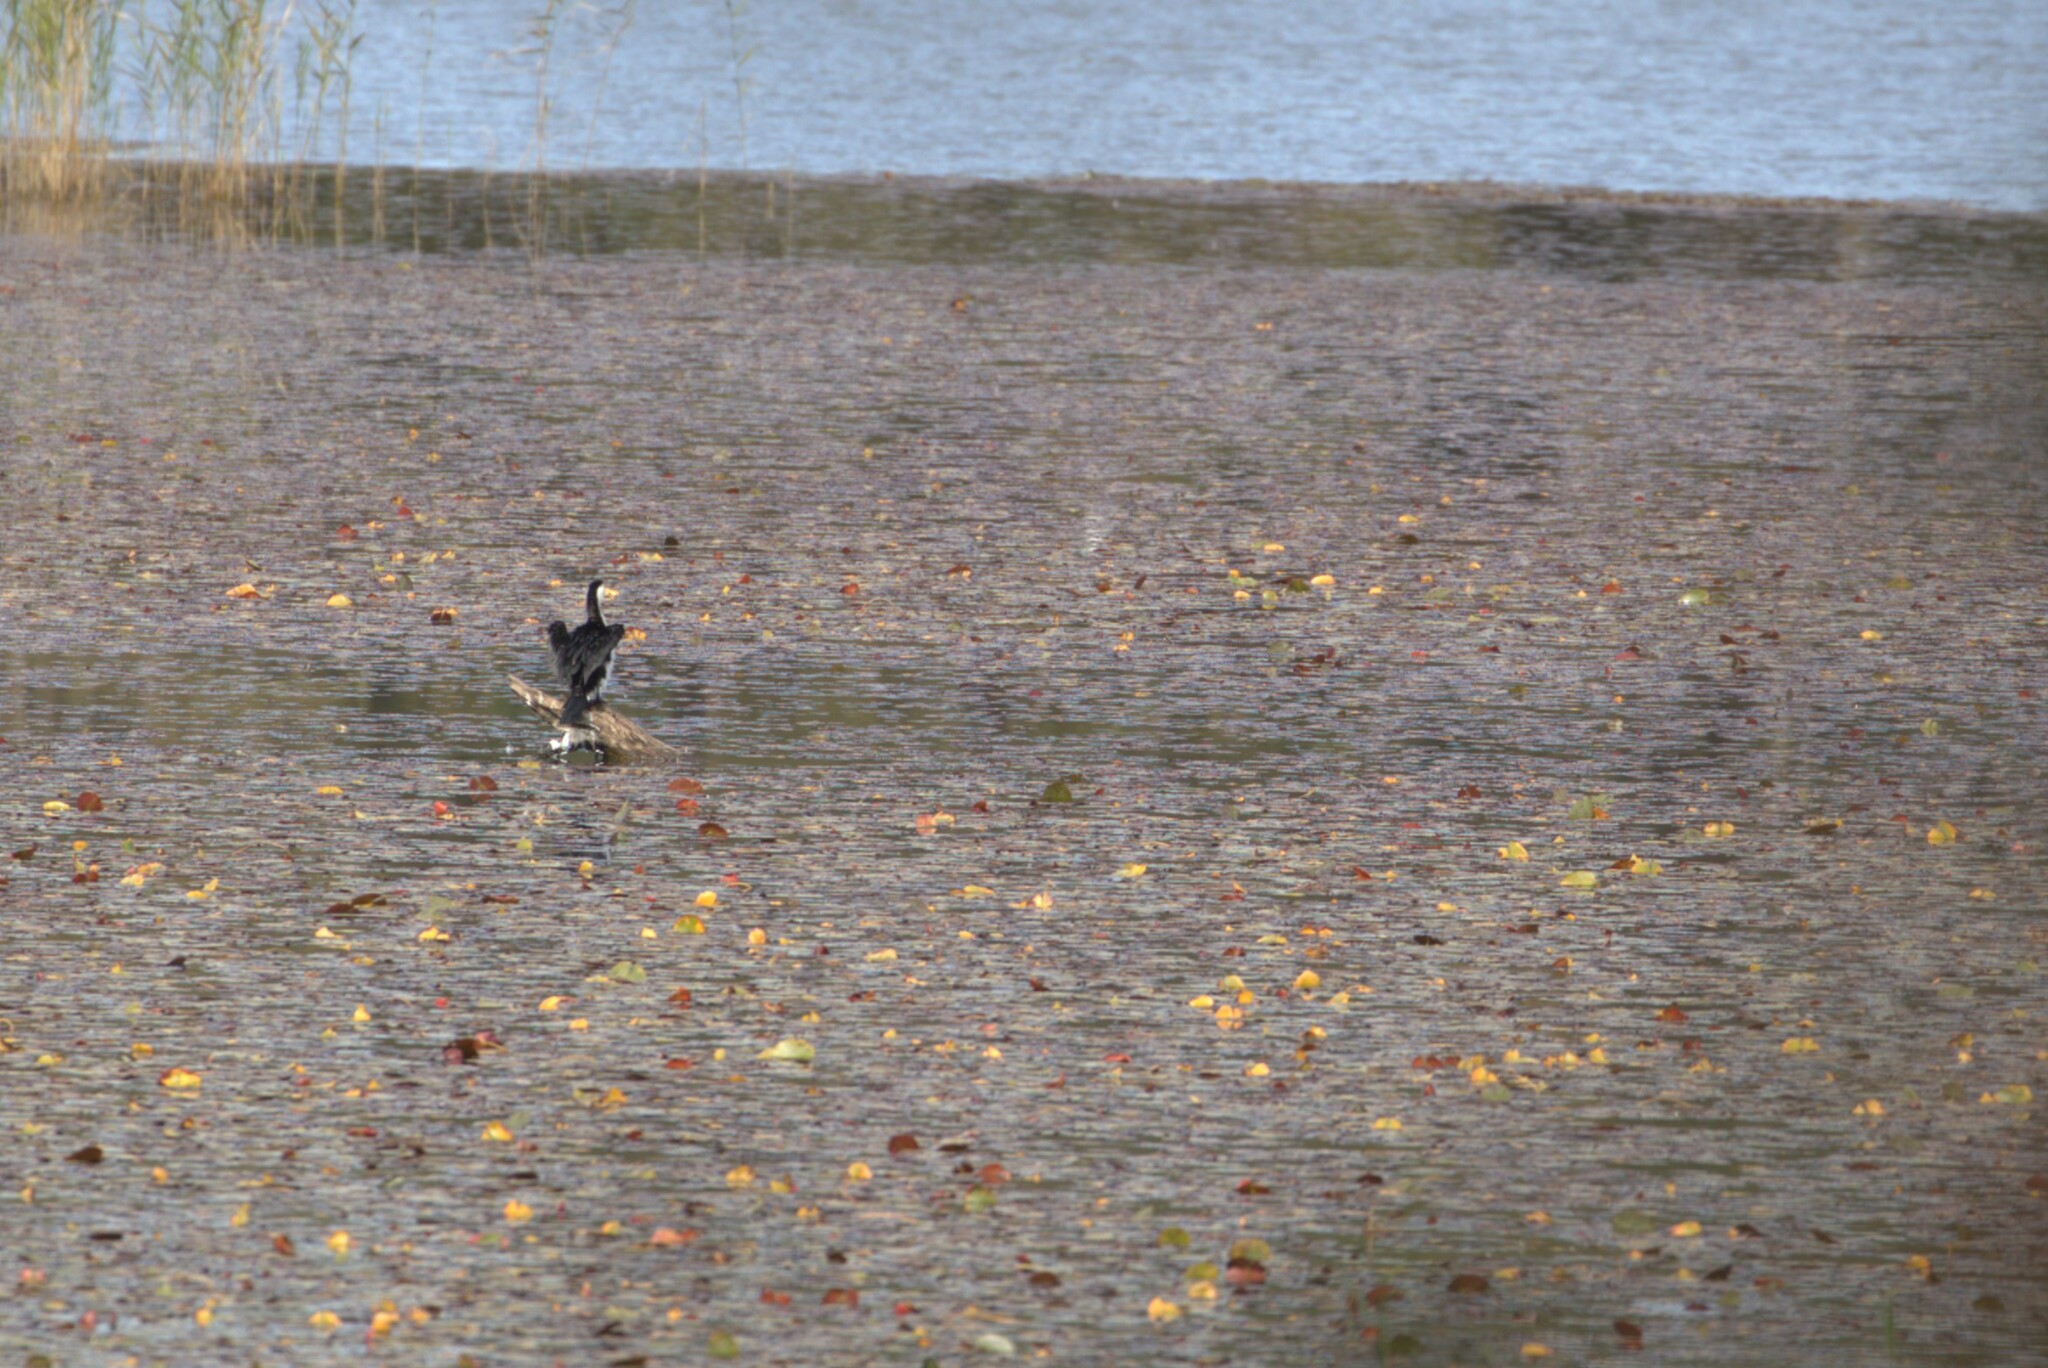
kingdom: Animalia
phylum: Chordata
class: Aves
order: Suliformes
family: Phalacrocoracidae
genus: Microcarbo
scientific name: Microcarbo melanoleucos
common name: Little pied cormorant
